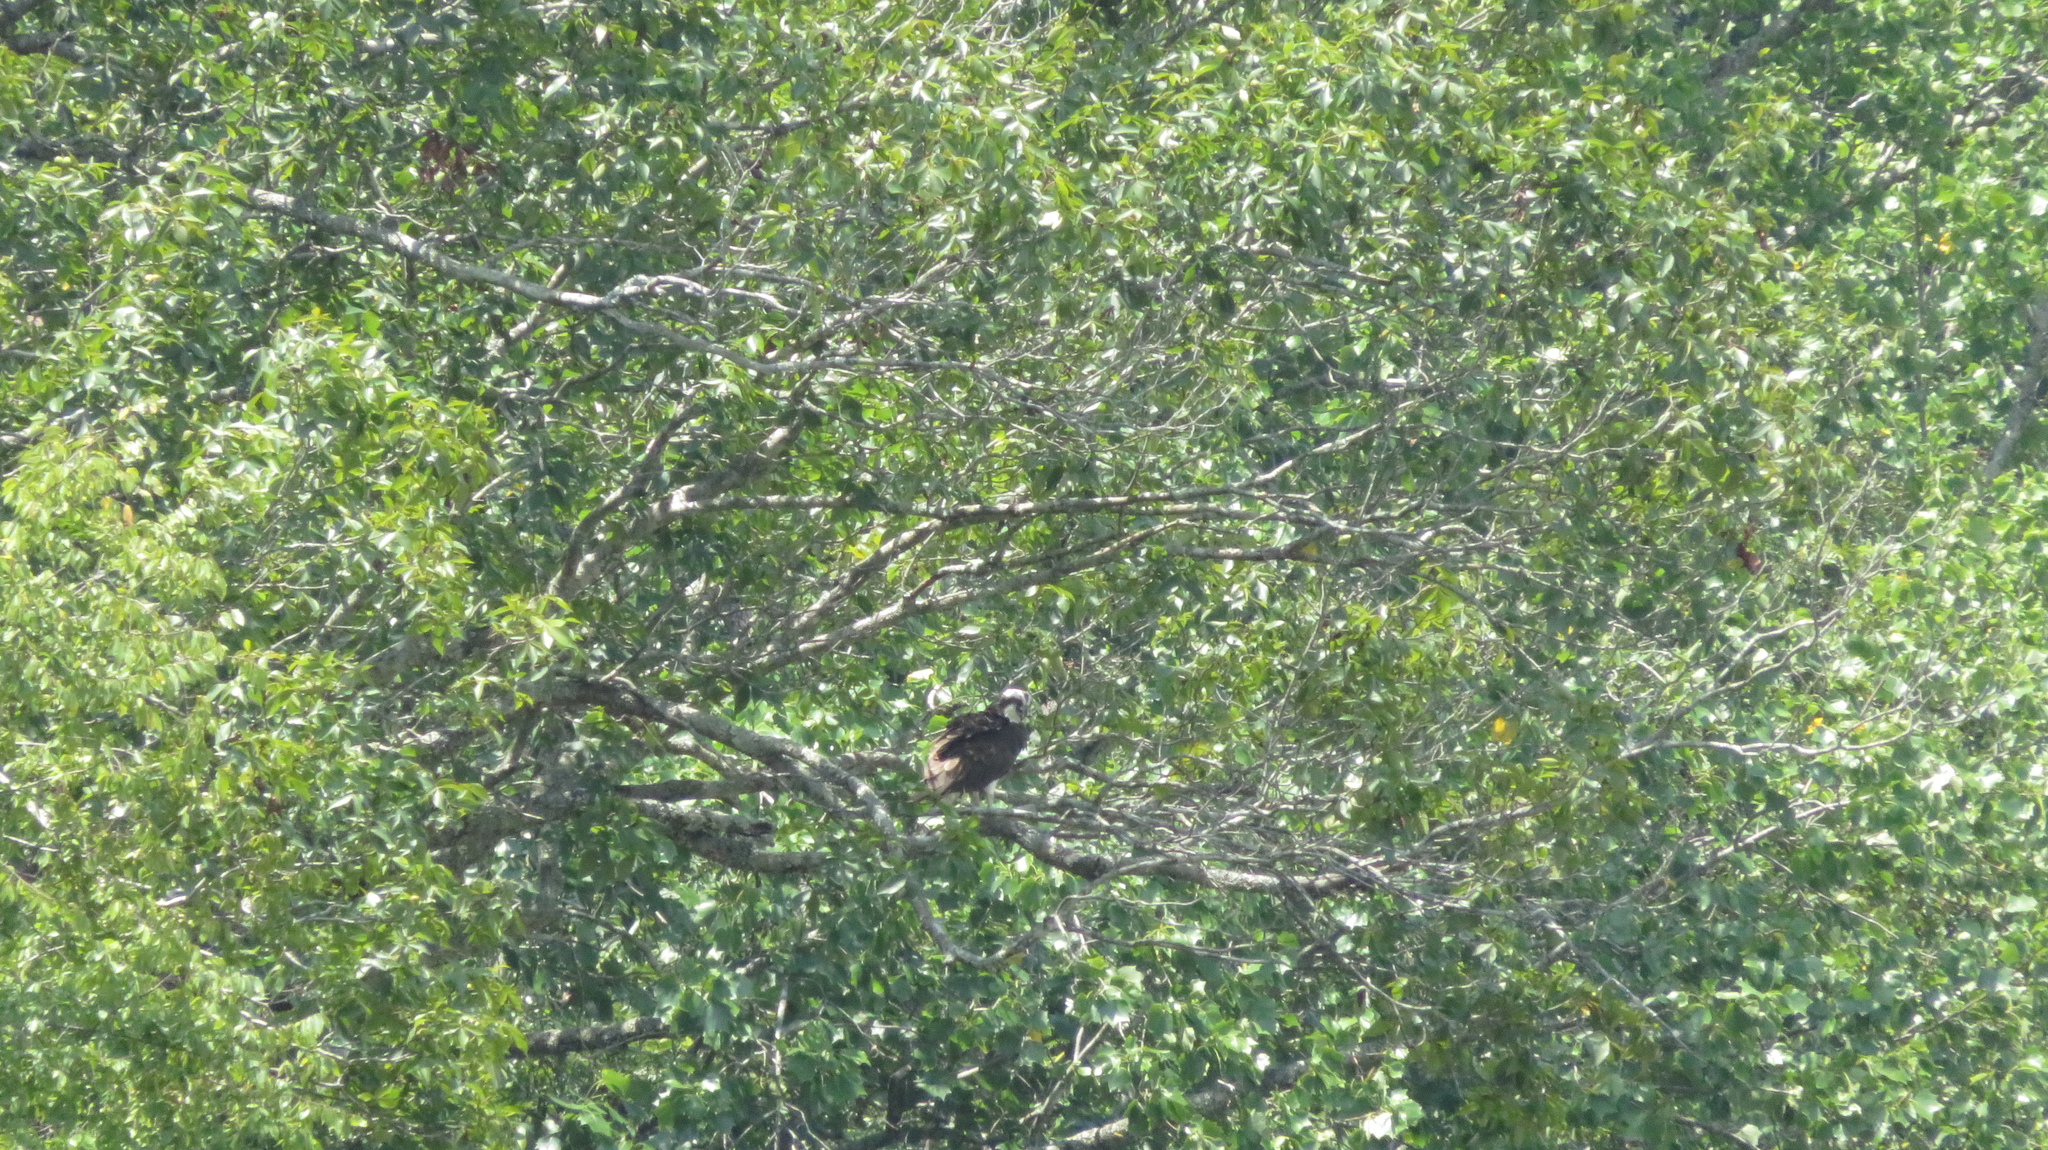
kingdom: Animalia
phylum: Chordata
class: Aves
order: Accipitriformes
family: Pandionidae
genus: Pandion
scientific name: Pandion haliaetus
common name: Osprey
